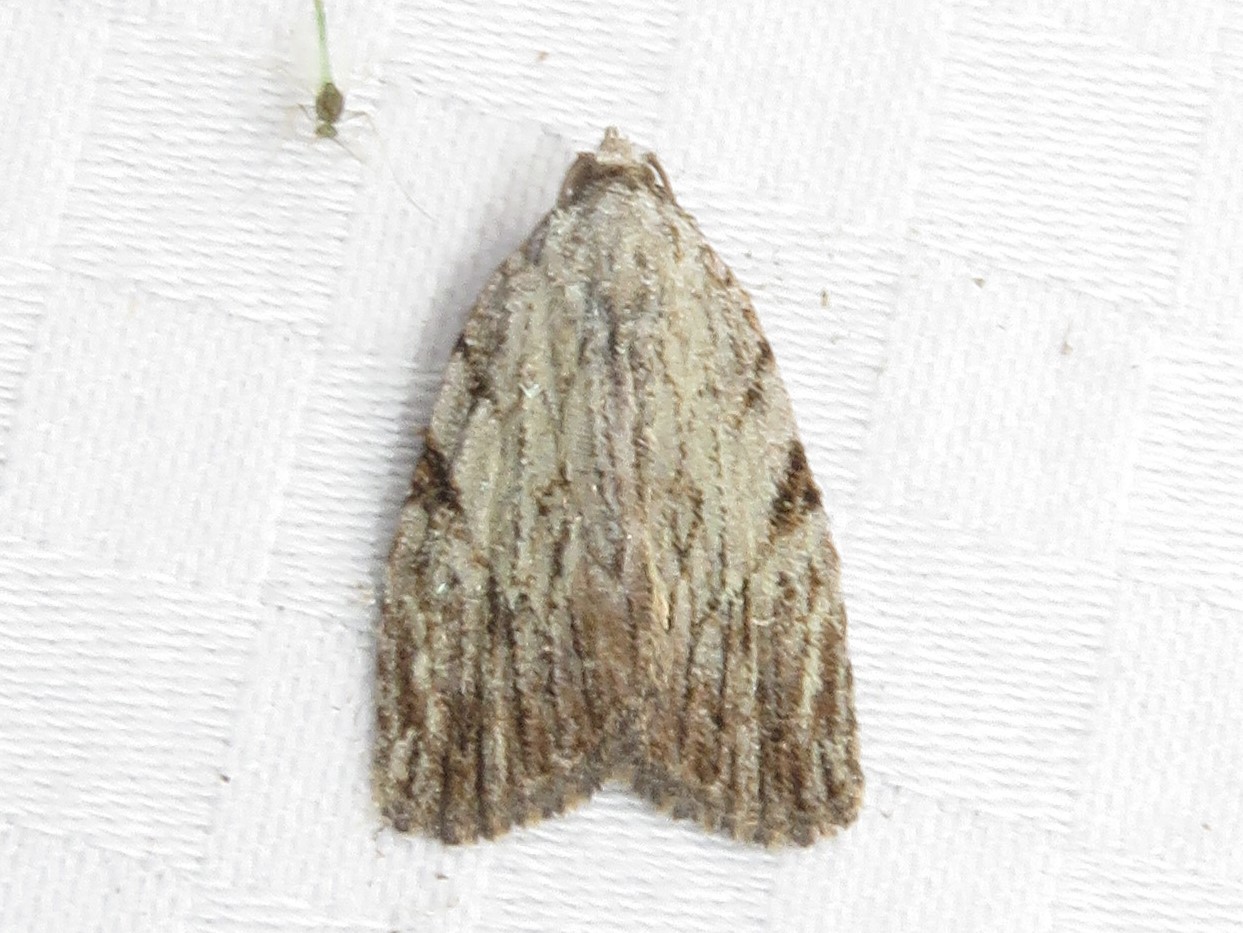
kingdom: Animalia
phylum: Arthropoda
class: Insecta
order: Lepidoptera
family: Noctuidae
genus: Balsa
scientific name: Balsa tristrigella
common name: Three-lined balsa moth
